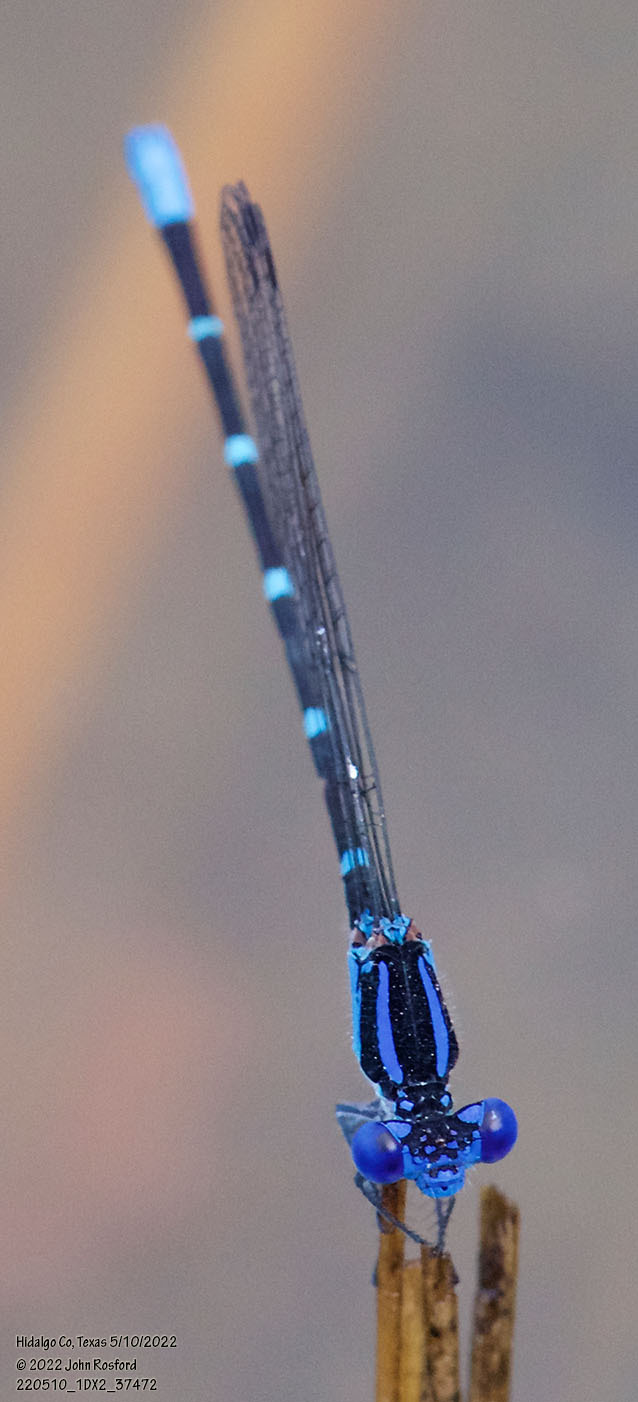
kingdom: Animalia
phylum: Arthropoda
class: Insecta
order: Odonata
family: Coenagrionidae
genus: Argia
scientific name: Argia sedula
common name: Blue-ringed dancer
